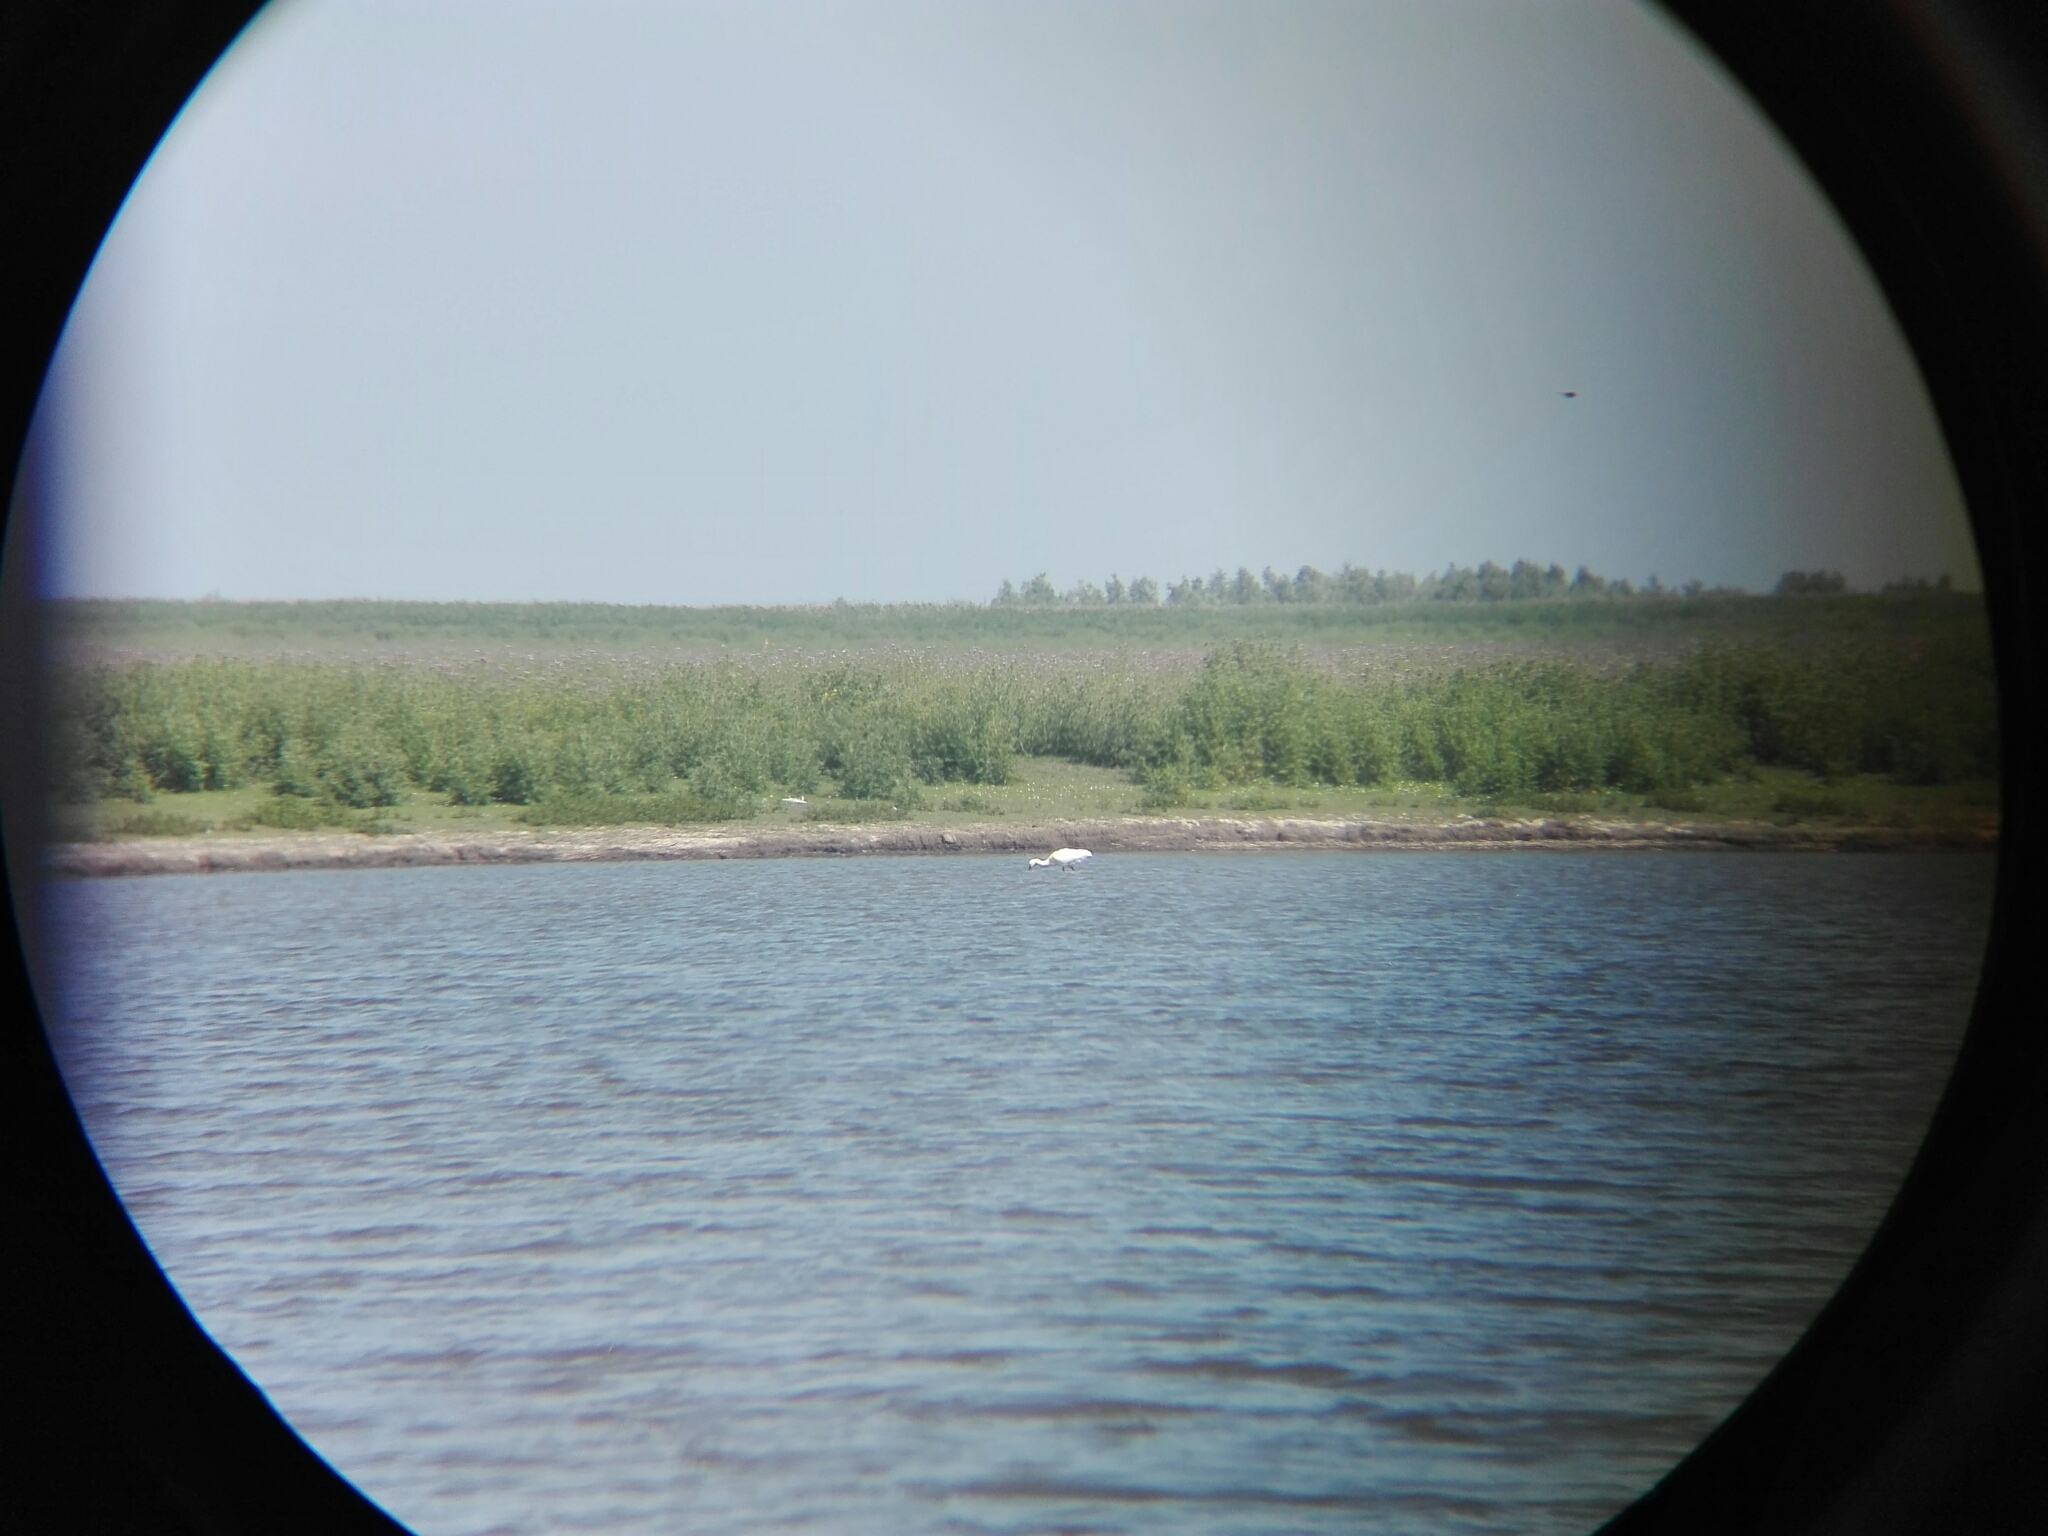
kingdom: Animalia
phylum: Chordata
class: Aves
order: Pelecaniformes
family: Threskiornithidae
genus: Platalea
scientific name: Platalea leucorodia
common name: Eurasian spoonbill
